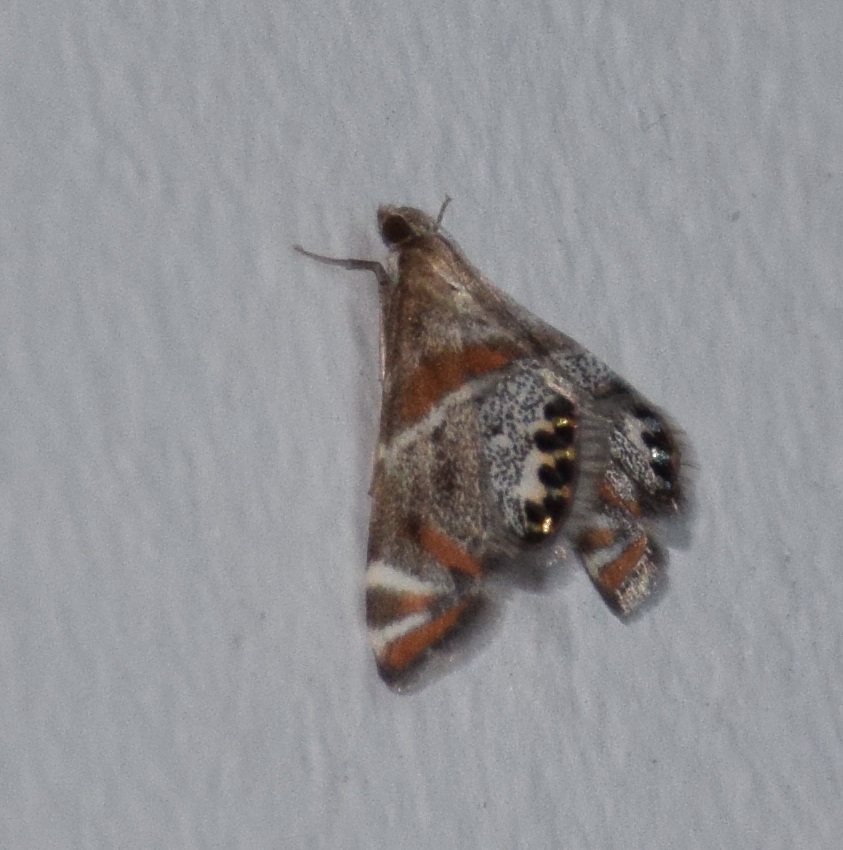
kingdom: Animalia
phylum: Arthropoda
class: Insecta
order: Lepidoptera
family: Crambidae
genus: Petrophila
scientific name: Petrophila jaliscalis
